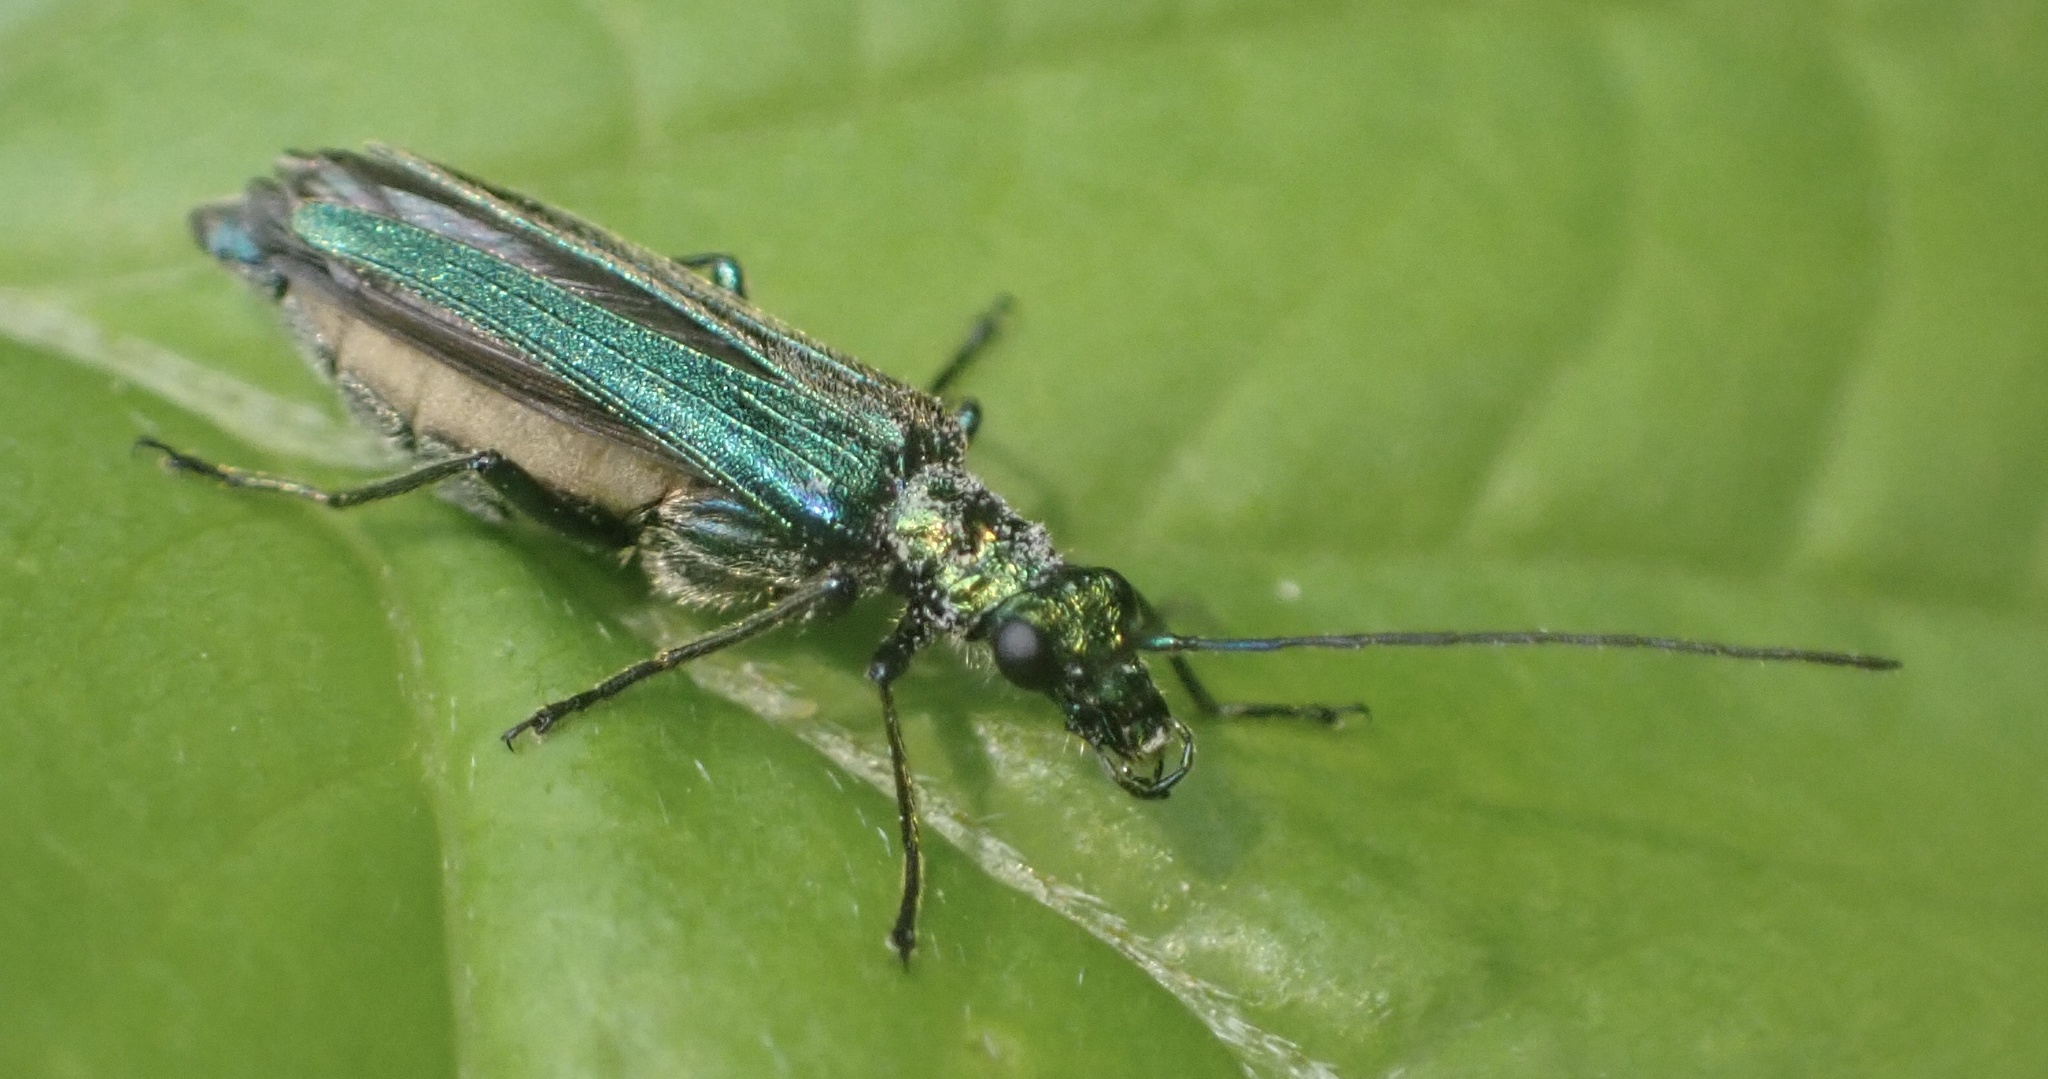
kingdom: Animalia
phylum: Arthropoda
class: Insecta
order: Coleoptera
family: Oedemeridae
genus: Oedemera
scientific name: Oedemera nobilis
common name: Swollen-thighed beetle
